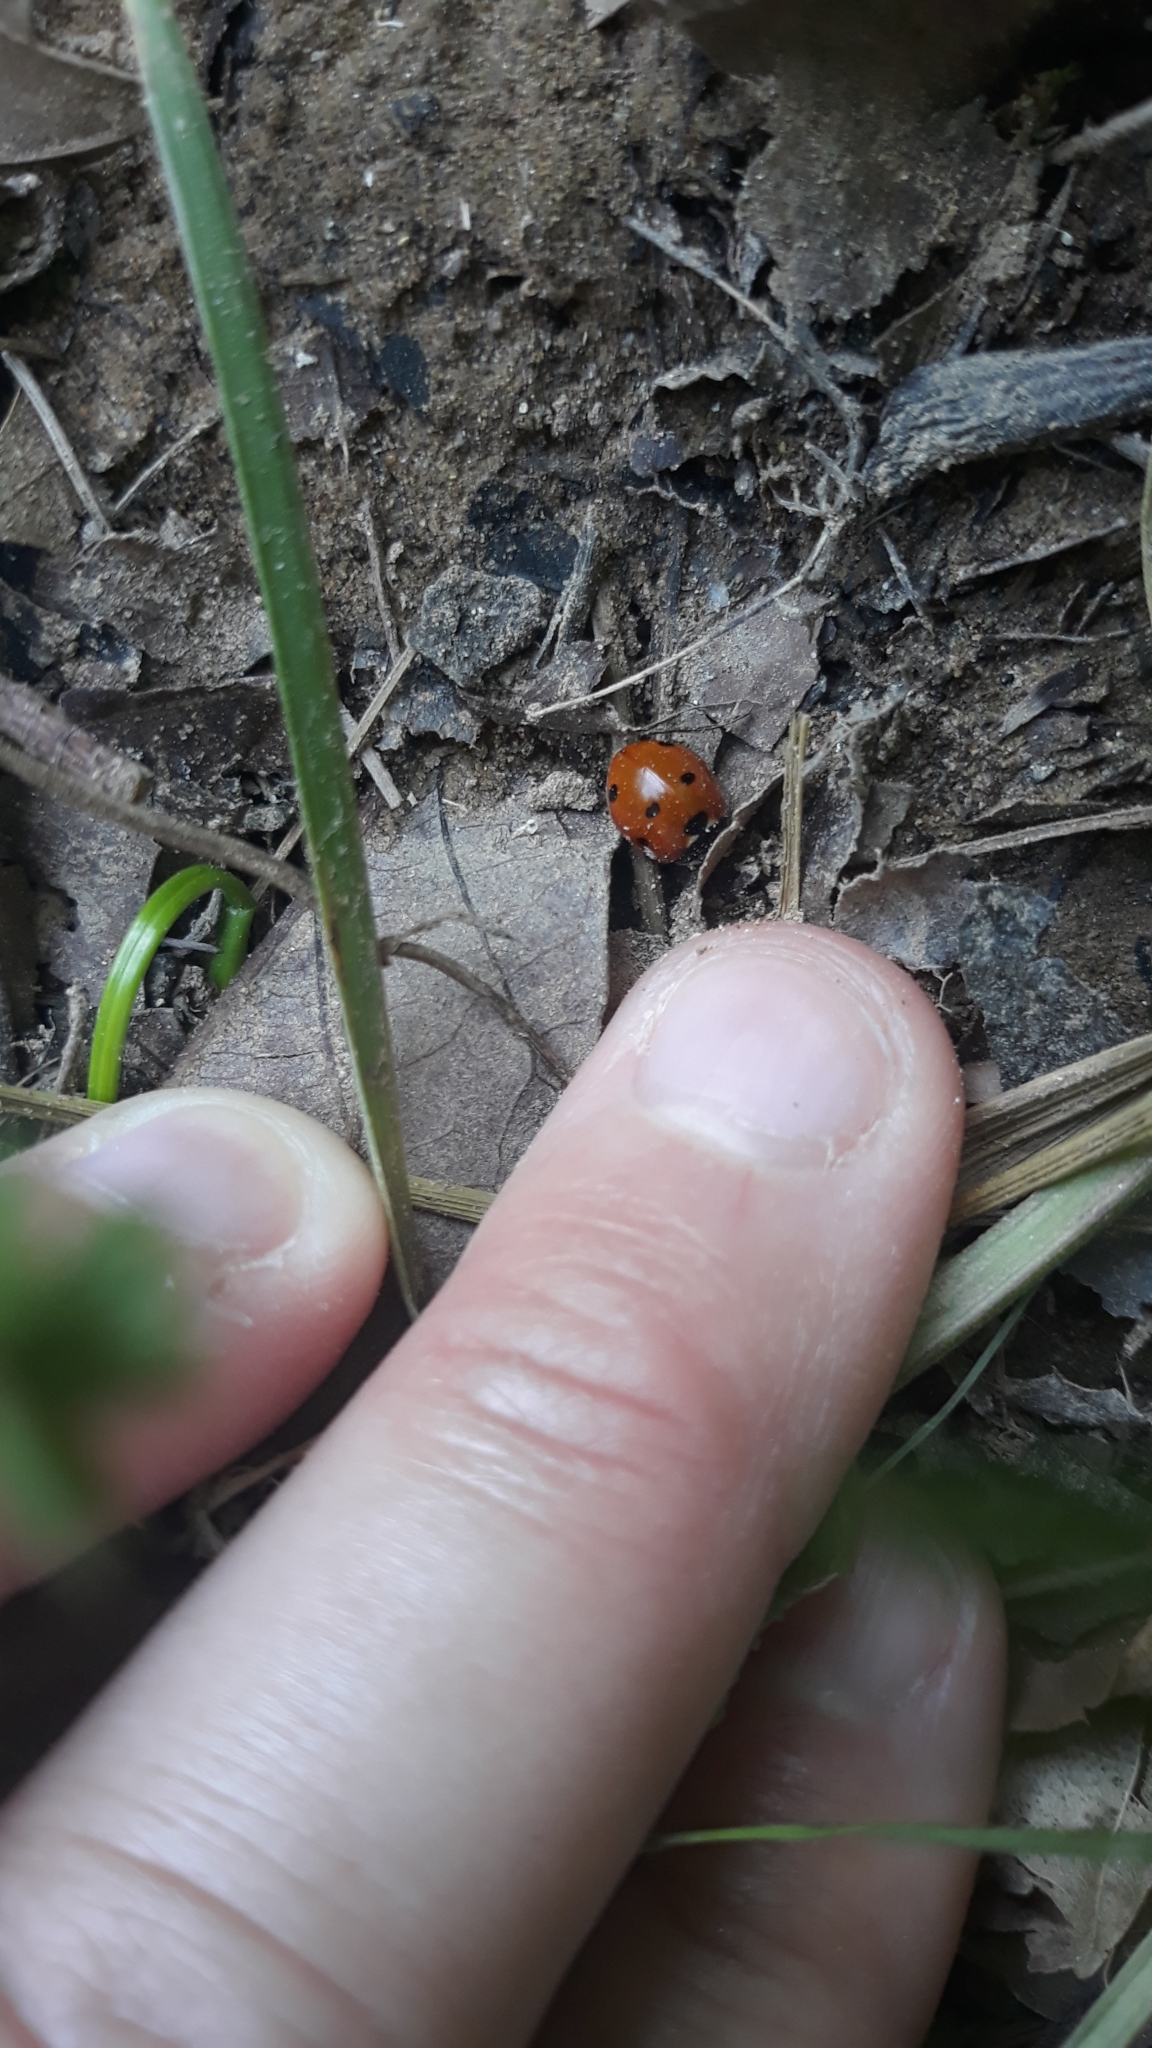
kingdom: Animalia
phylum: Arthropoda
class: Insecta
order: Coleoptera
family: Coccinellidae
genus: Coccinella
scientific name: Coccinella septempunctata
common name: Sevenspotted lady beetle
